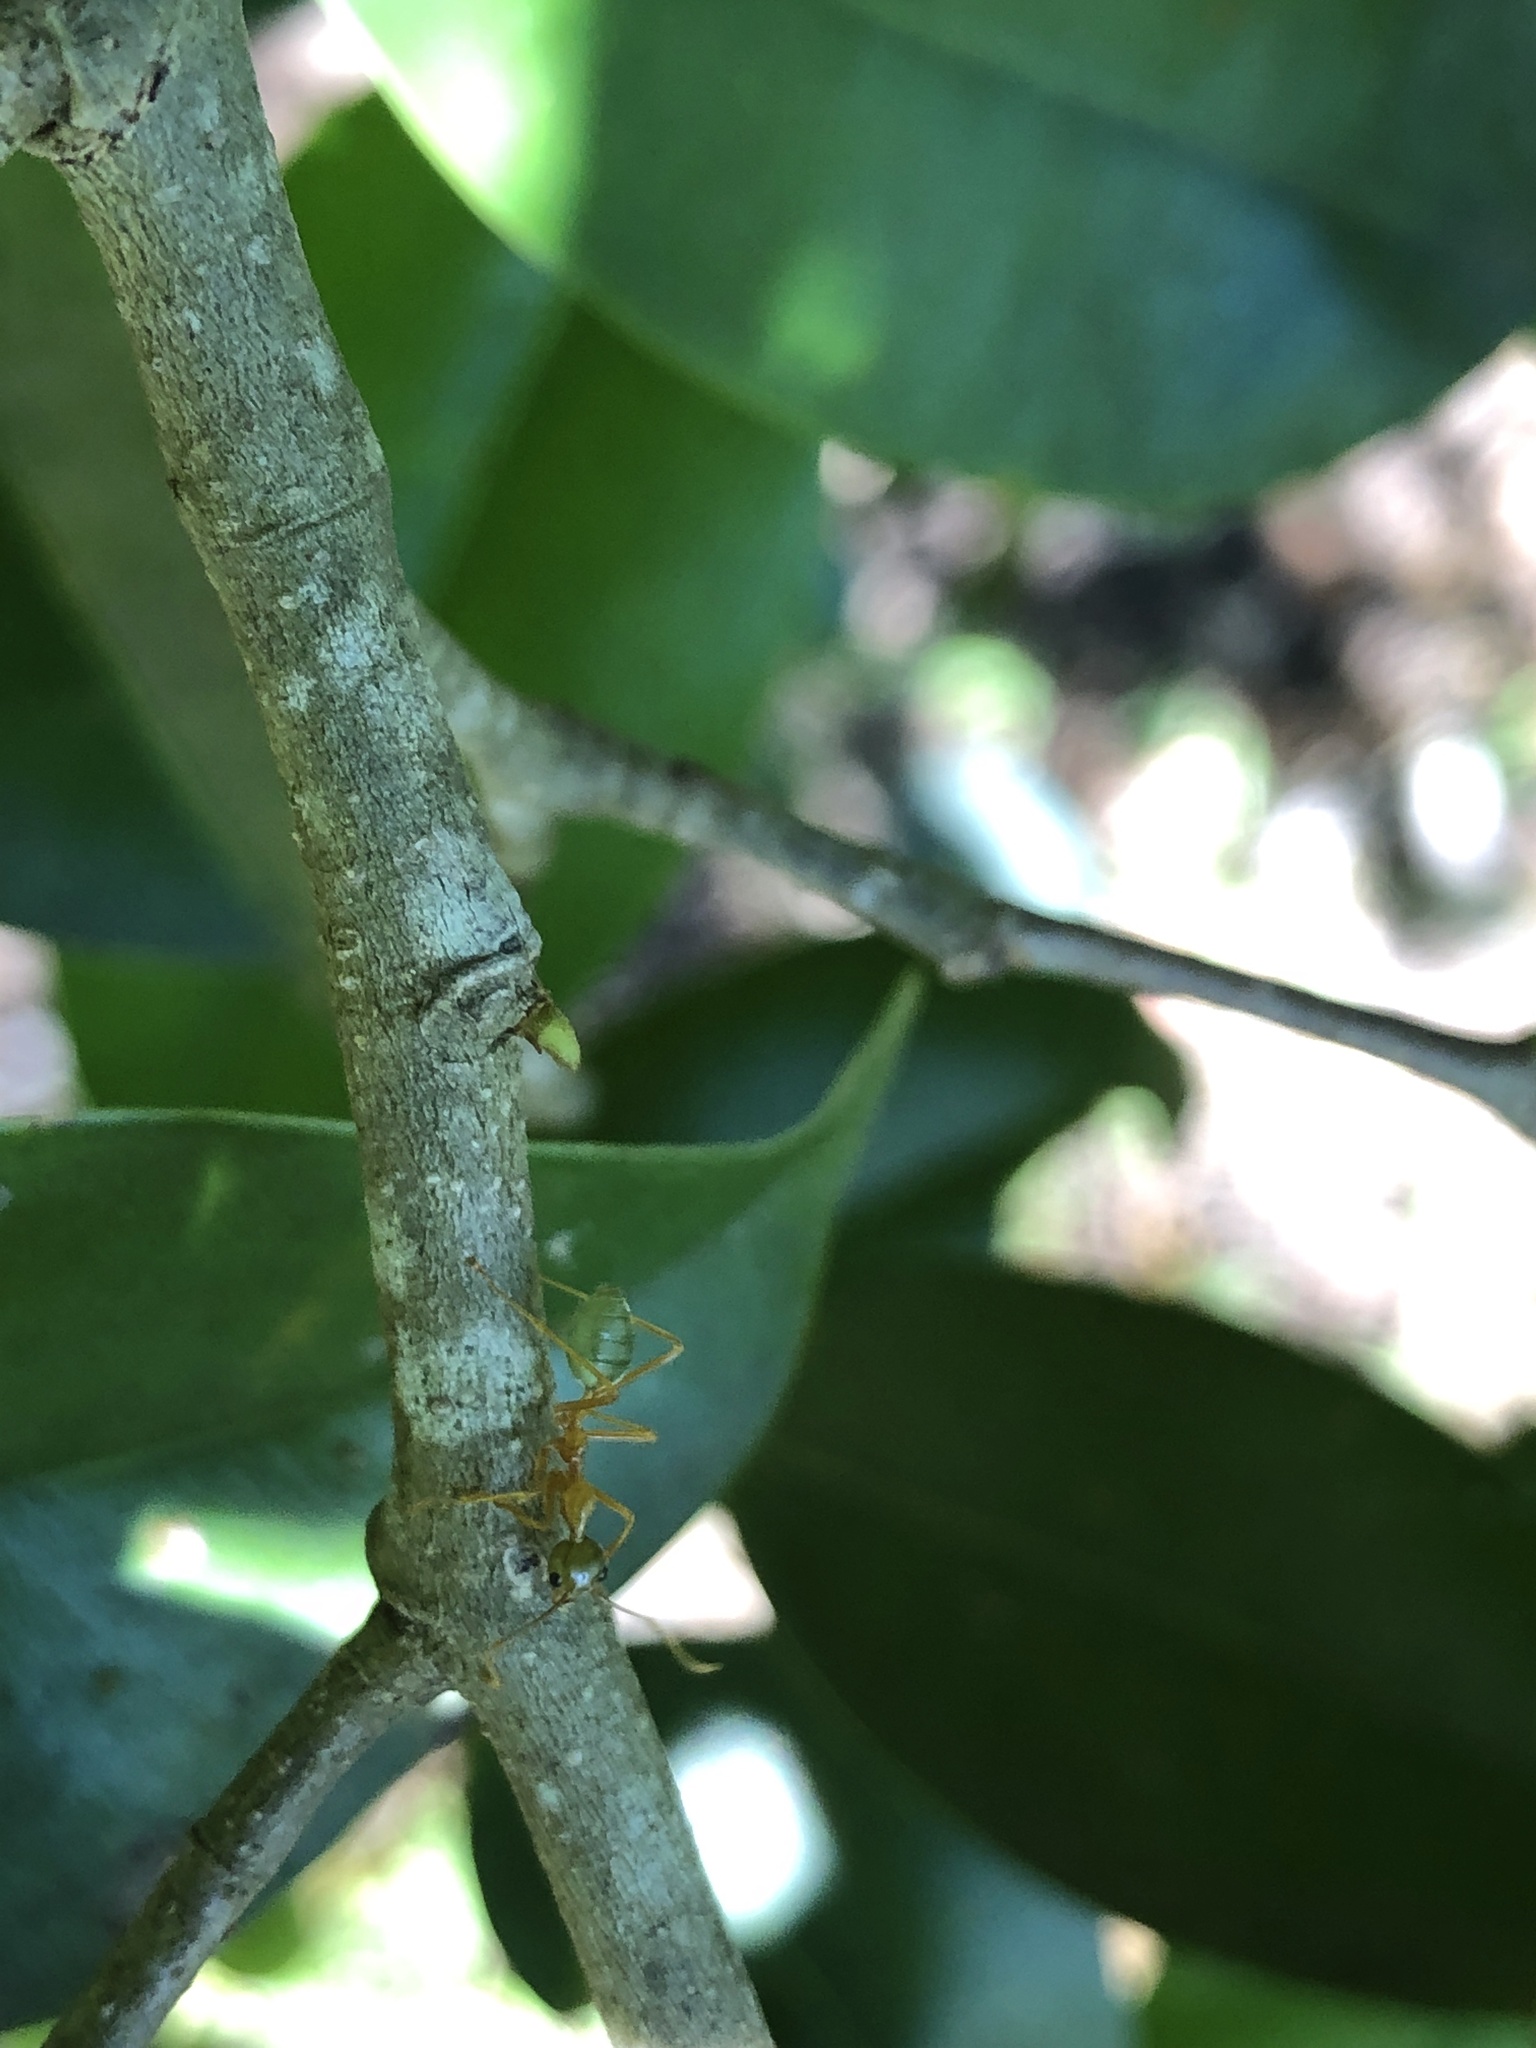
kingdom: Animalia
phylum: Arthropoda
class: Insecta
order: Hymenoptera
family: Formicidae
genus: Oecophylla
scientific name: Oecophylla smaragdina
